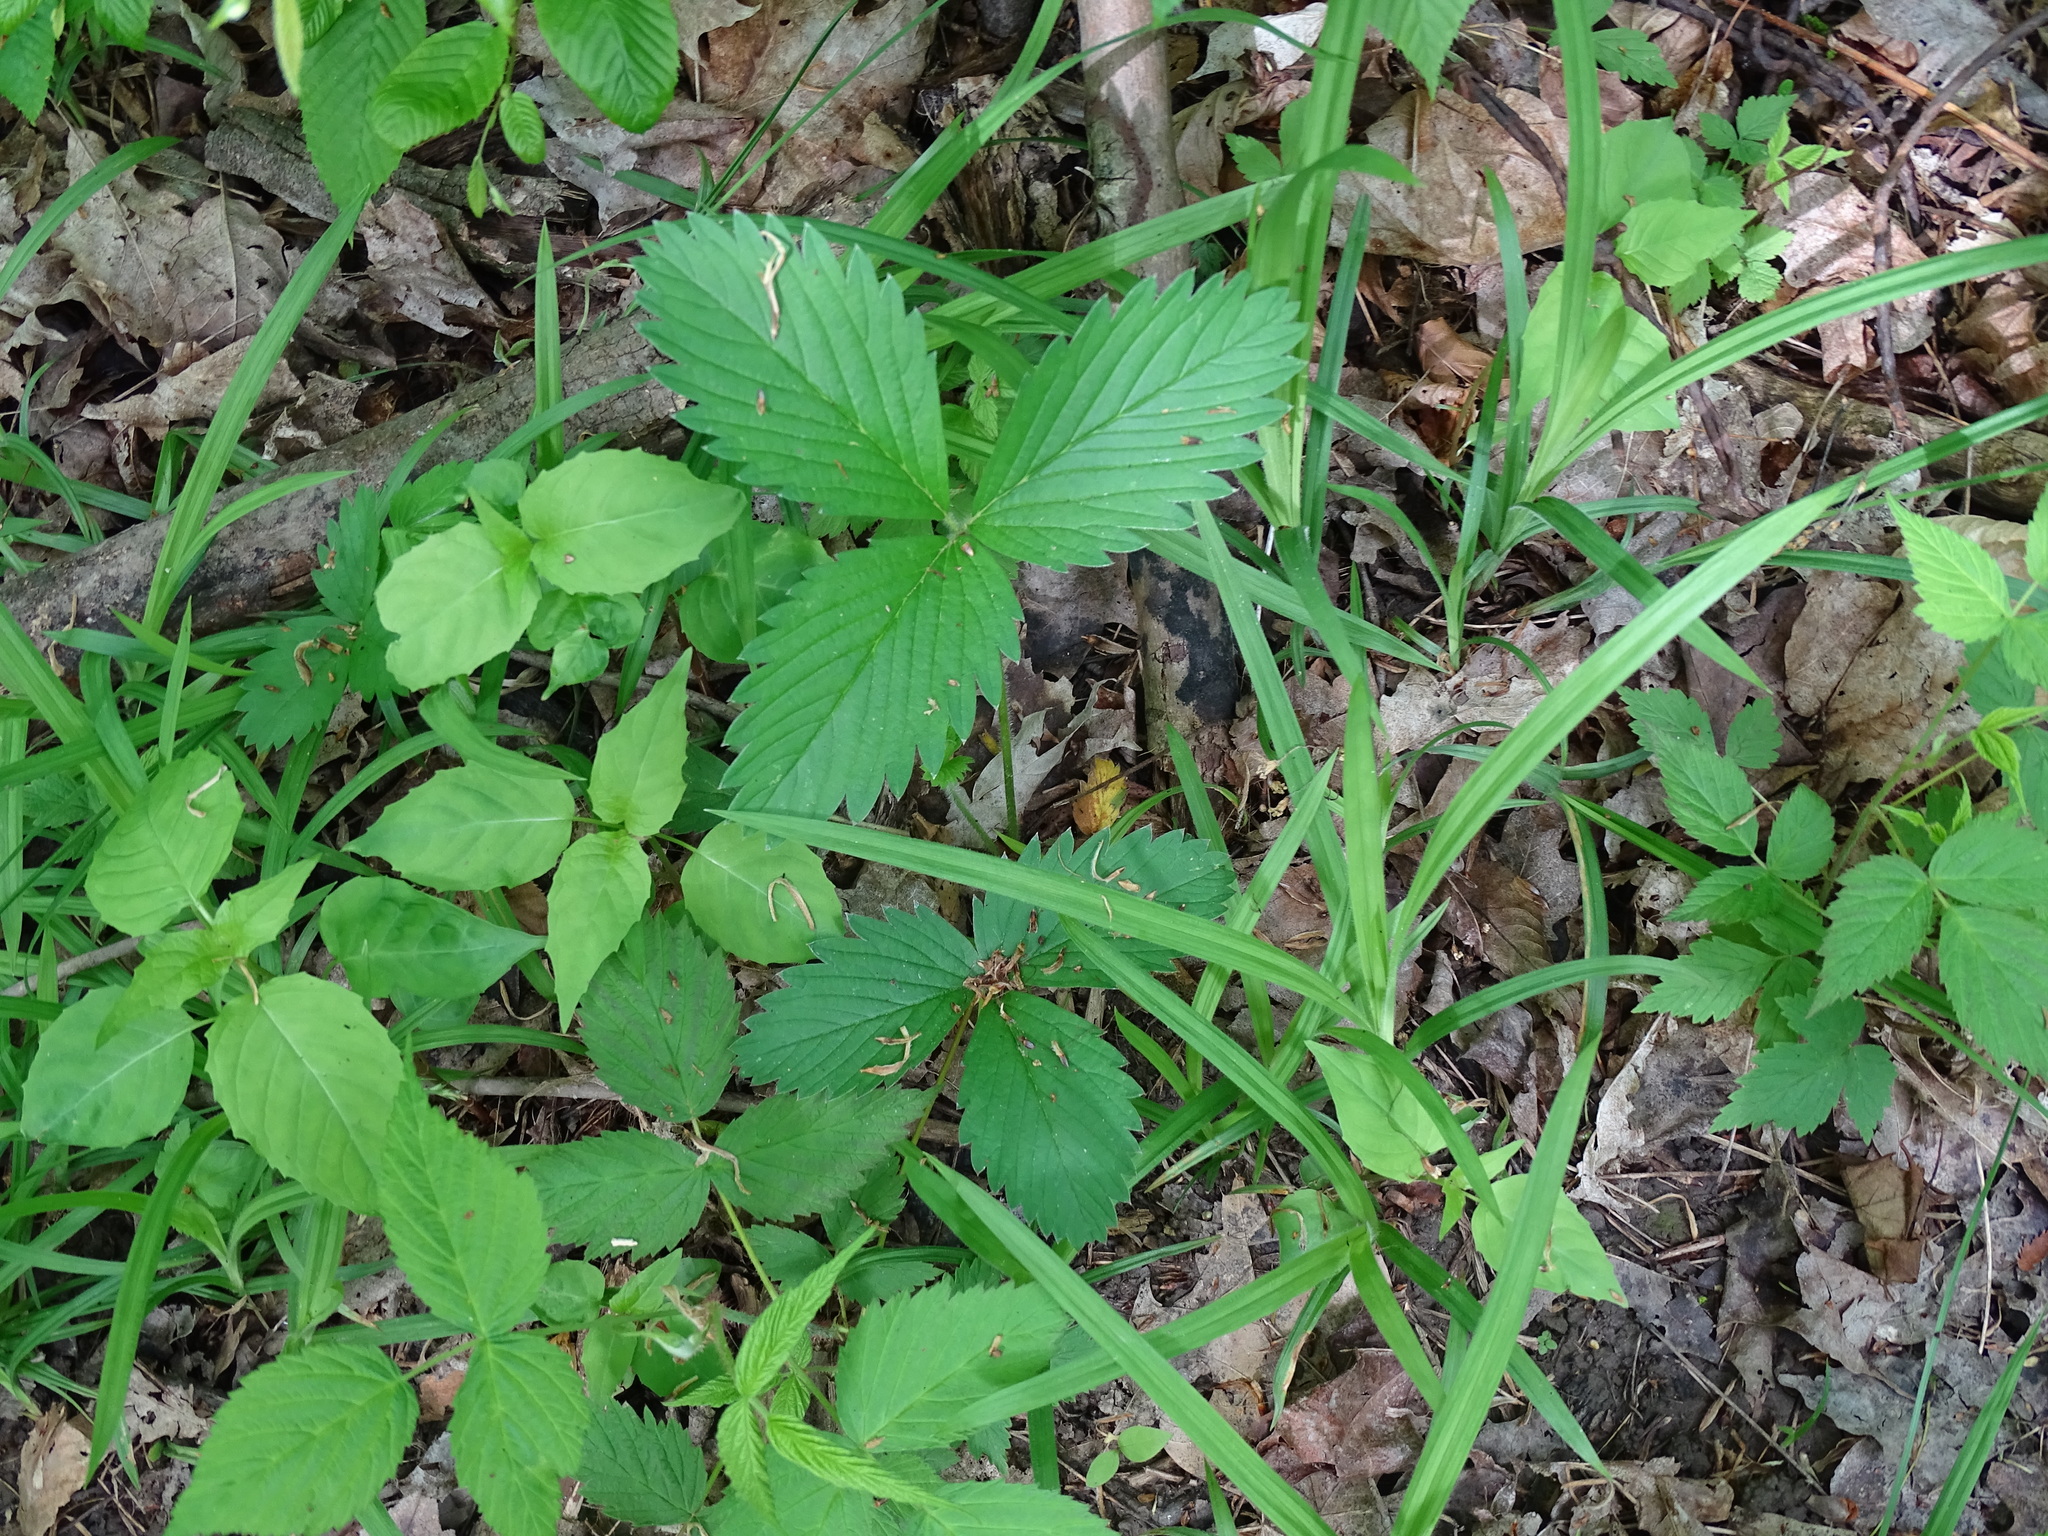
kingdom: Plantae
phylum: Tracheophyta
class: Magnoliopsida
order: Rosales
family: Rosaceae
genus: Fragaria
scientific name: Fragaria virginiana
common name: Thickleaved wild strawberry
